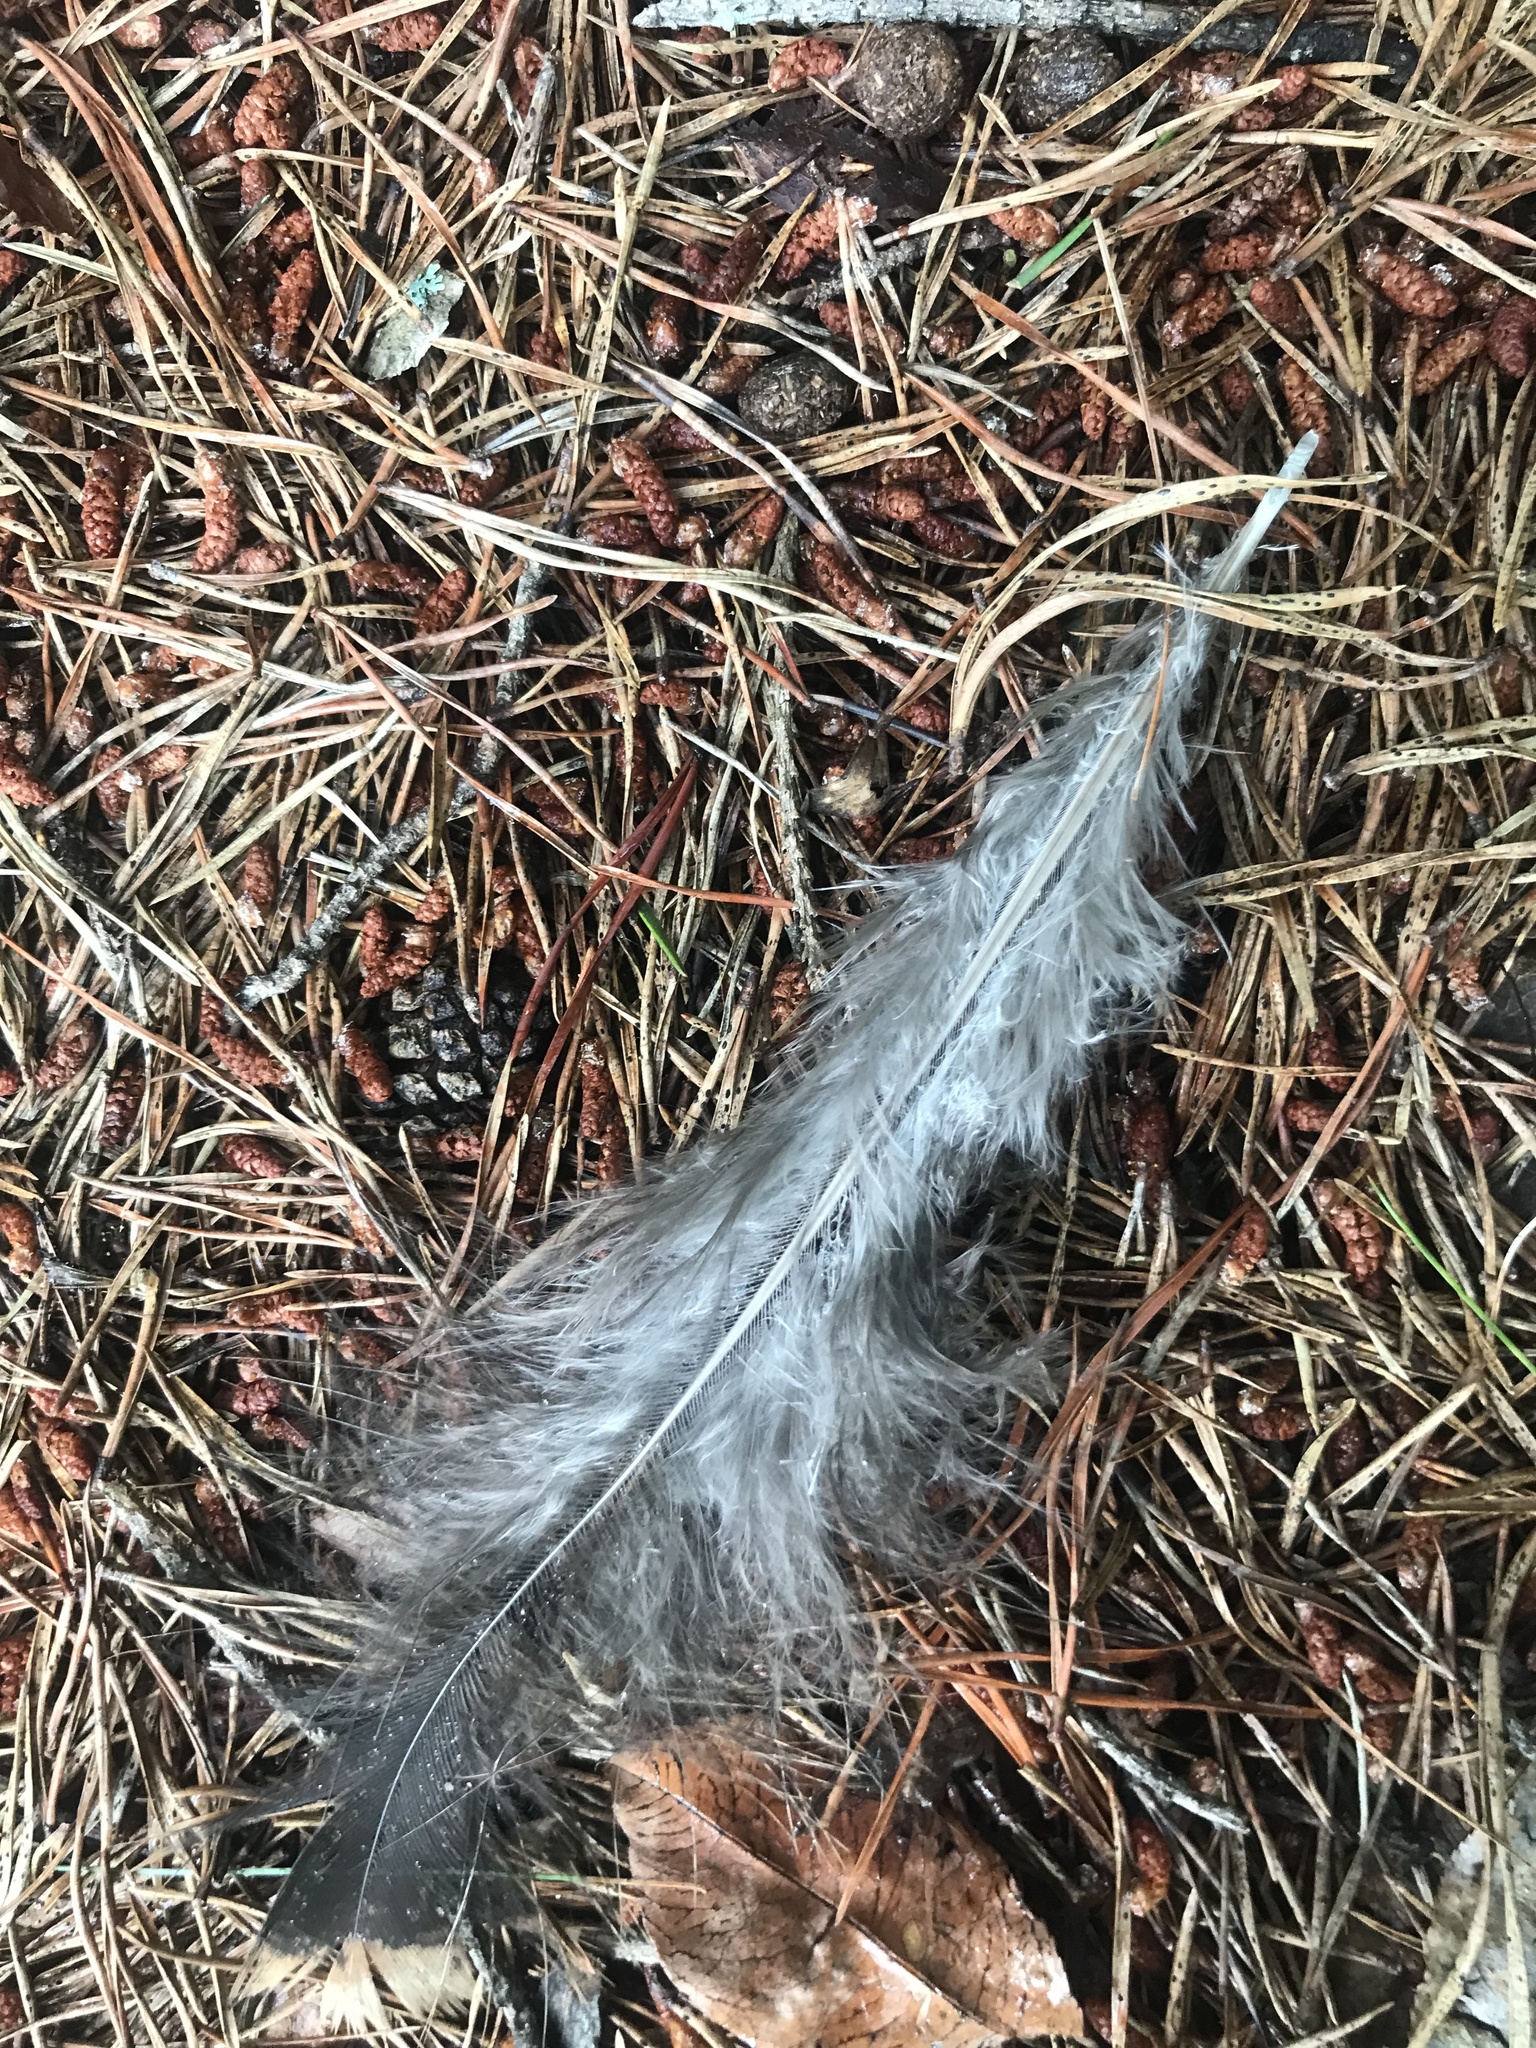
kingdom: Animalia
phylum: Chordata
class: Aves
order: Galliformes
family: Phasianidae
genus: Meleagris
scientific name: Meleagris gallopavo
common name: Wild turkey
